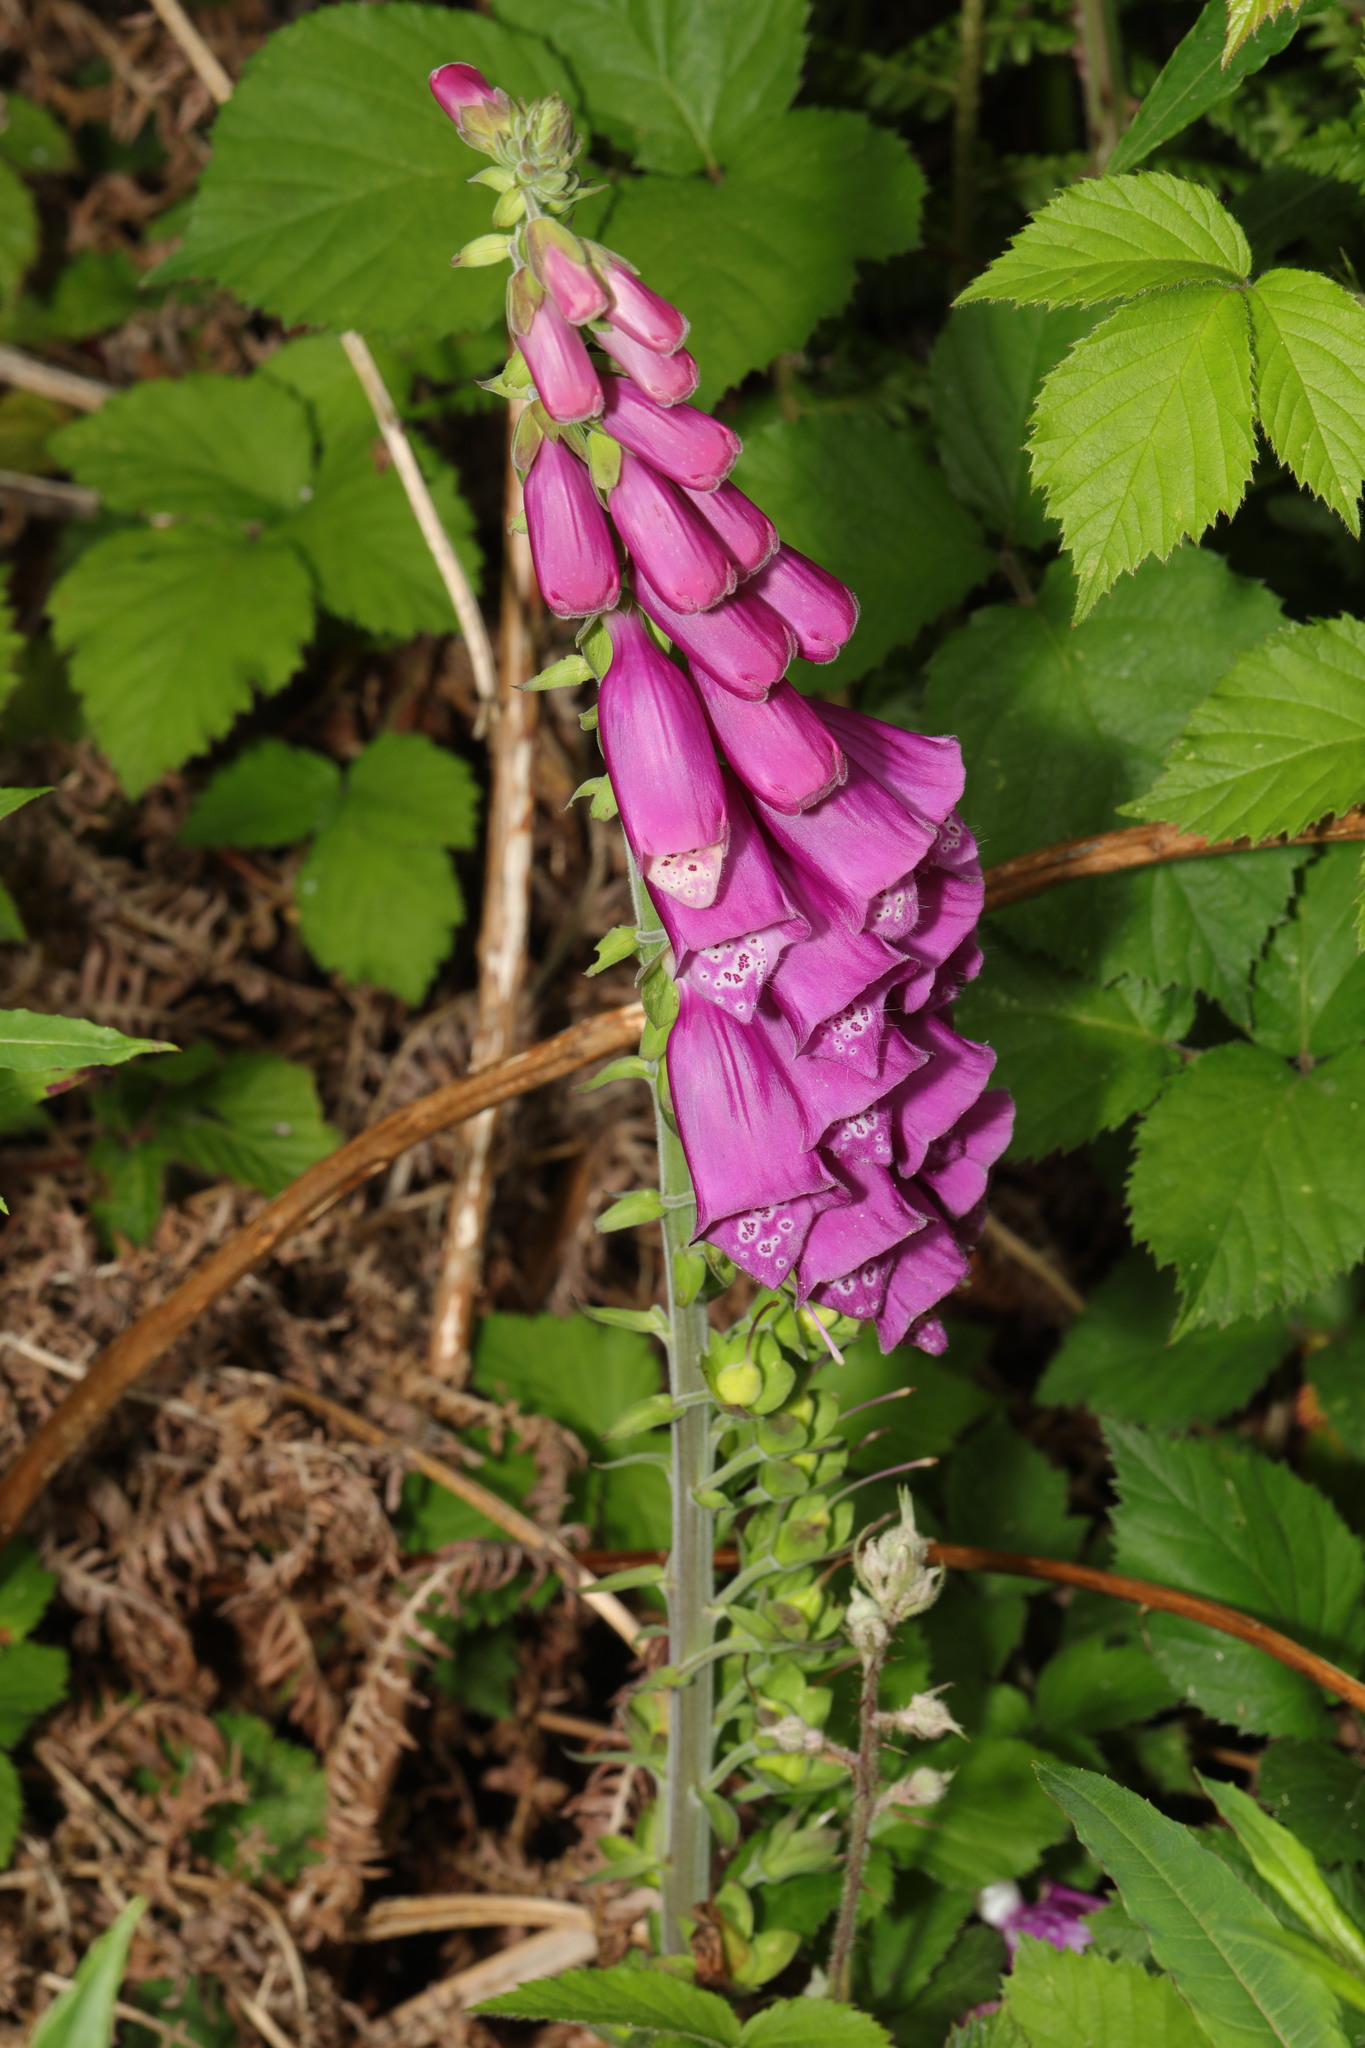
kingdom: Plantae
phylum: Tracheophyta
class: Magnoliopsida
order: Lamiales
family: Plantaginaceae
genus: Digitalis
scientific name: Digitalis purpurea
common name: Foxglove
